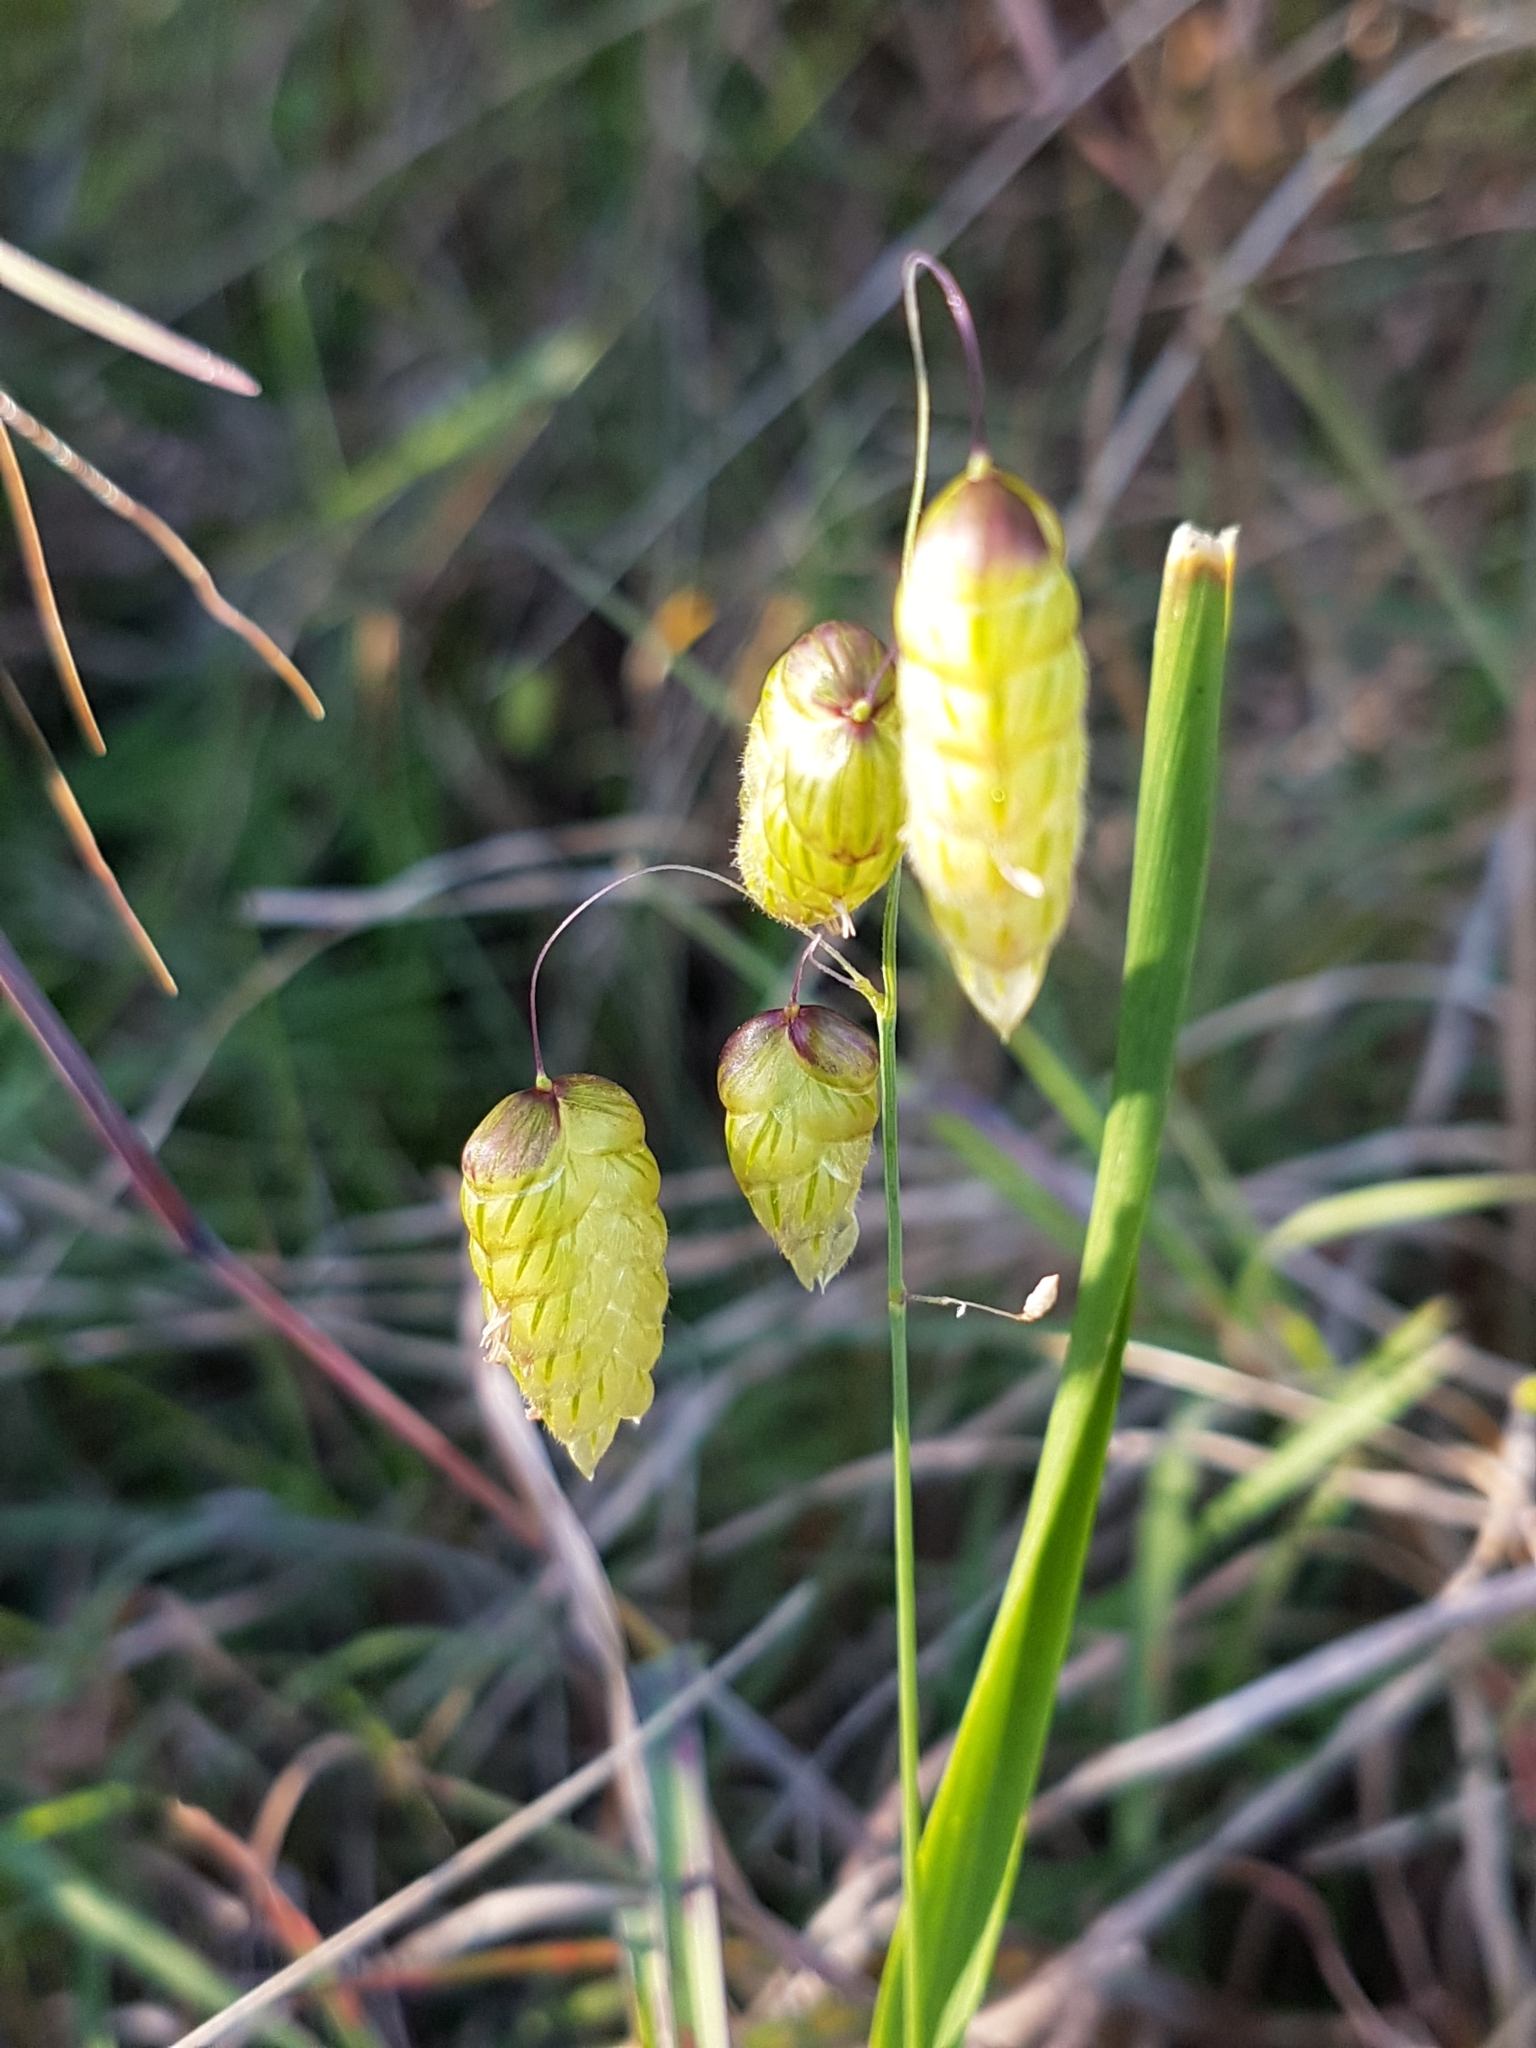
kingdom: Plantae
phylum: Tracheophyta
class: Liliopsida
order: Poales
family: Poaceae
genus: Briza
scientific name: Briza maxima
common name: Big quakinggrass
